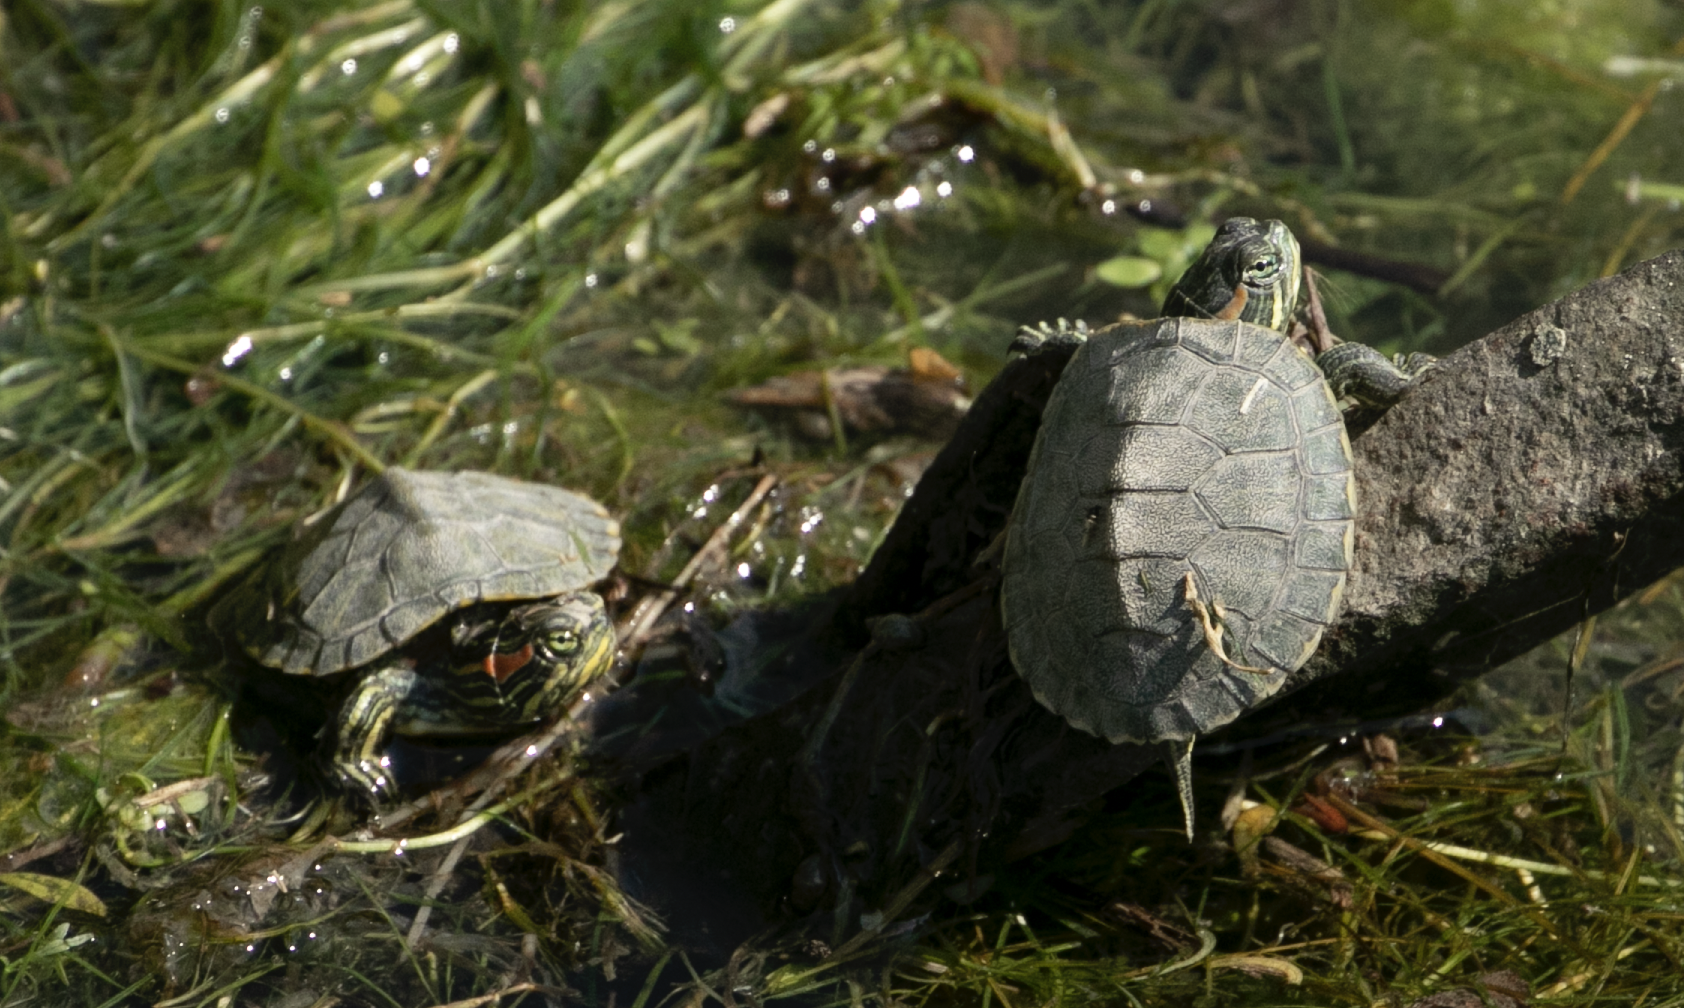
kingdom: Animalia
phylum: Chordata
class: Testudines
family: Emydidae
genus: Trachemys
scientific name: Trachemys scripta
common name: Slider
